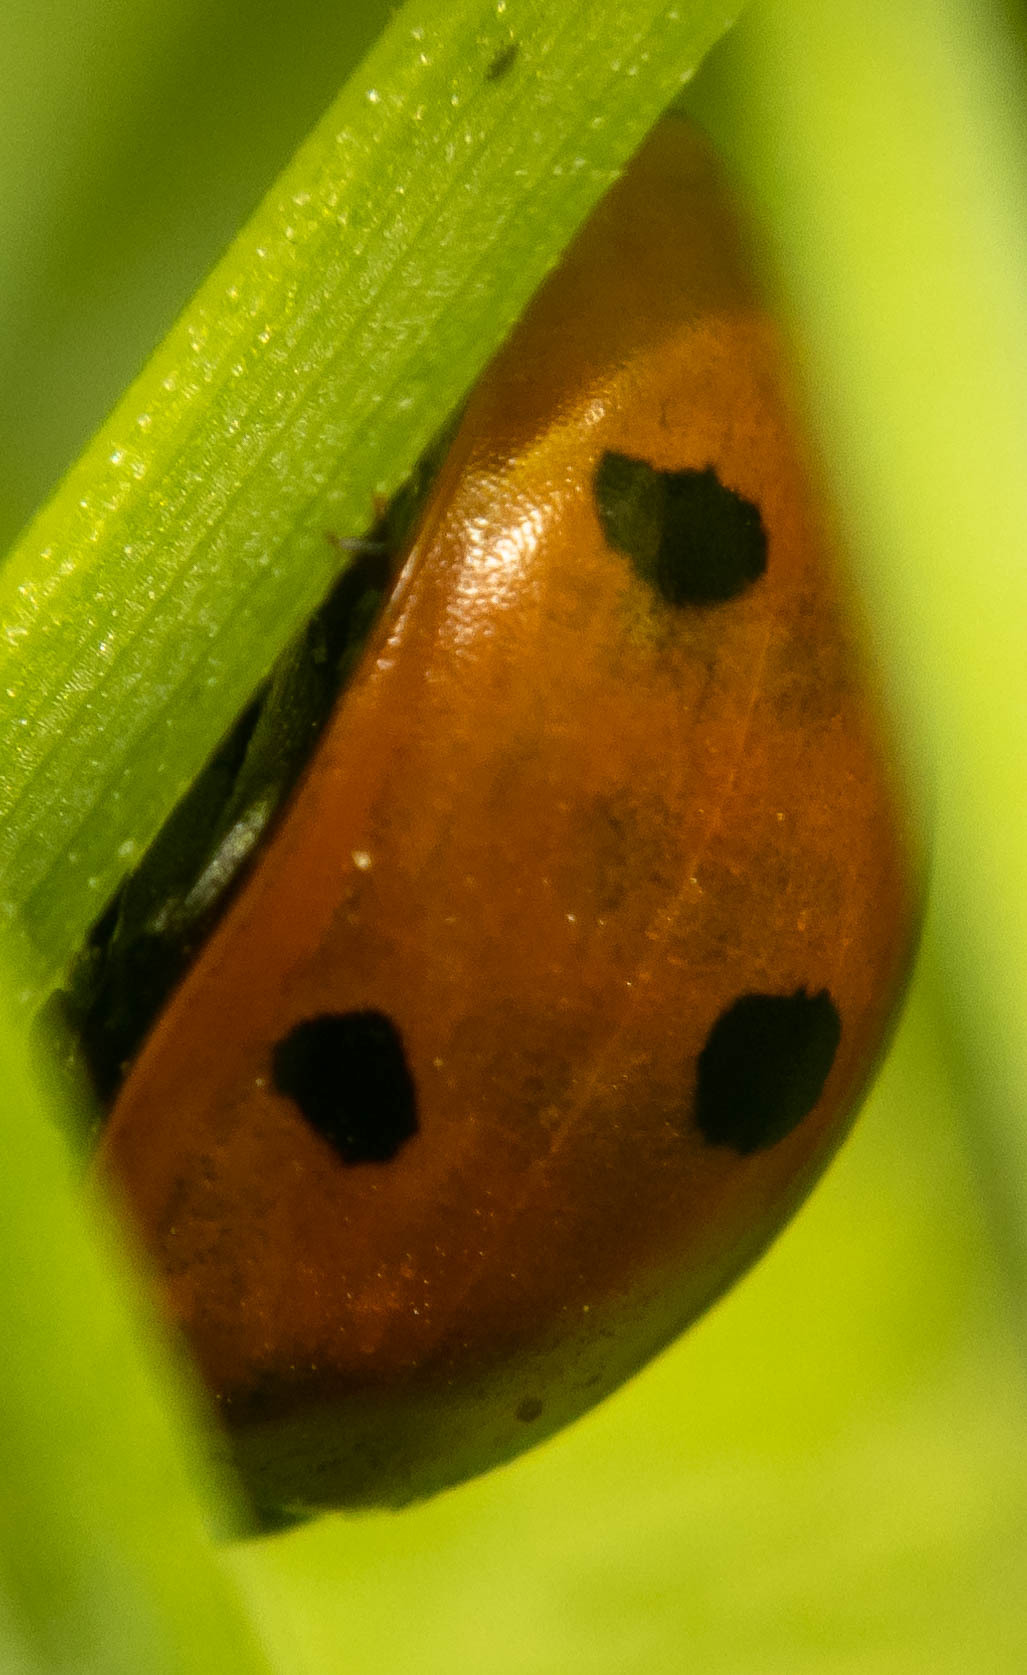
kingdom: Animalia
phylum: Arthropoda
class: Insecta
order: Coleoptera
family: Coccinellidae
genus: Coccinella
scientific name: Coccinella septempunctata
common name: Sevenspotted lady beetle
